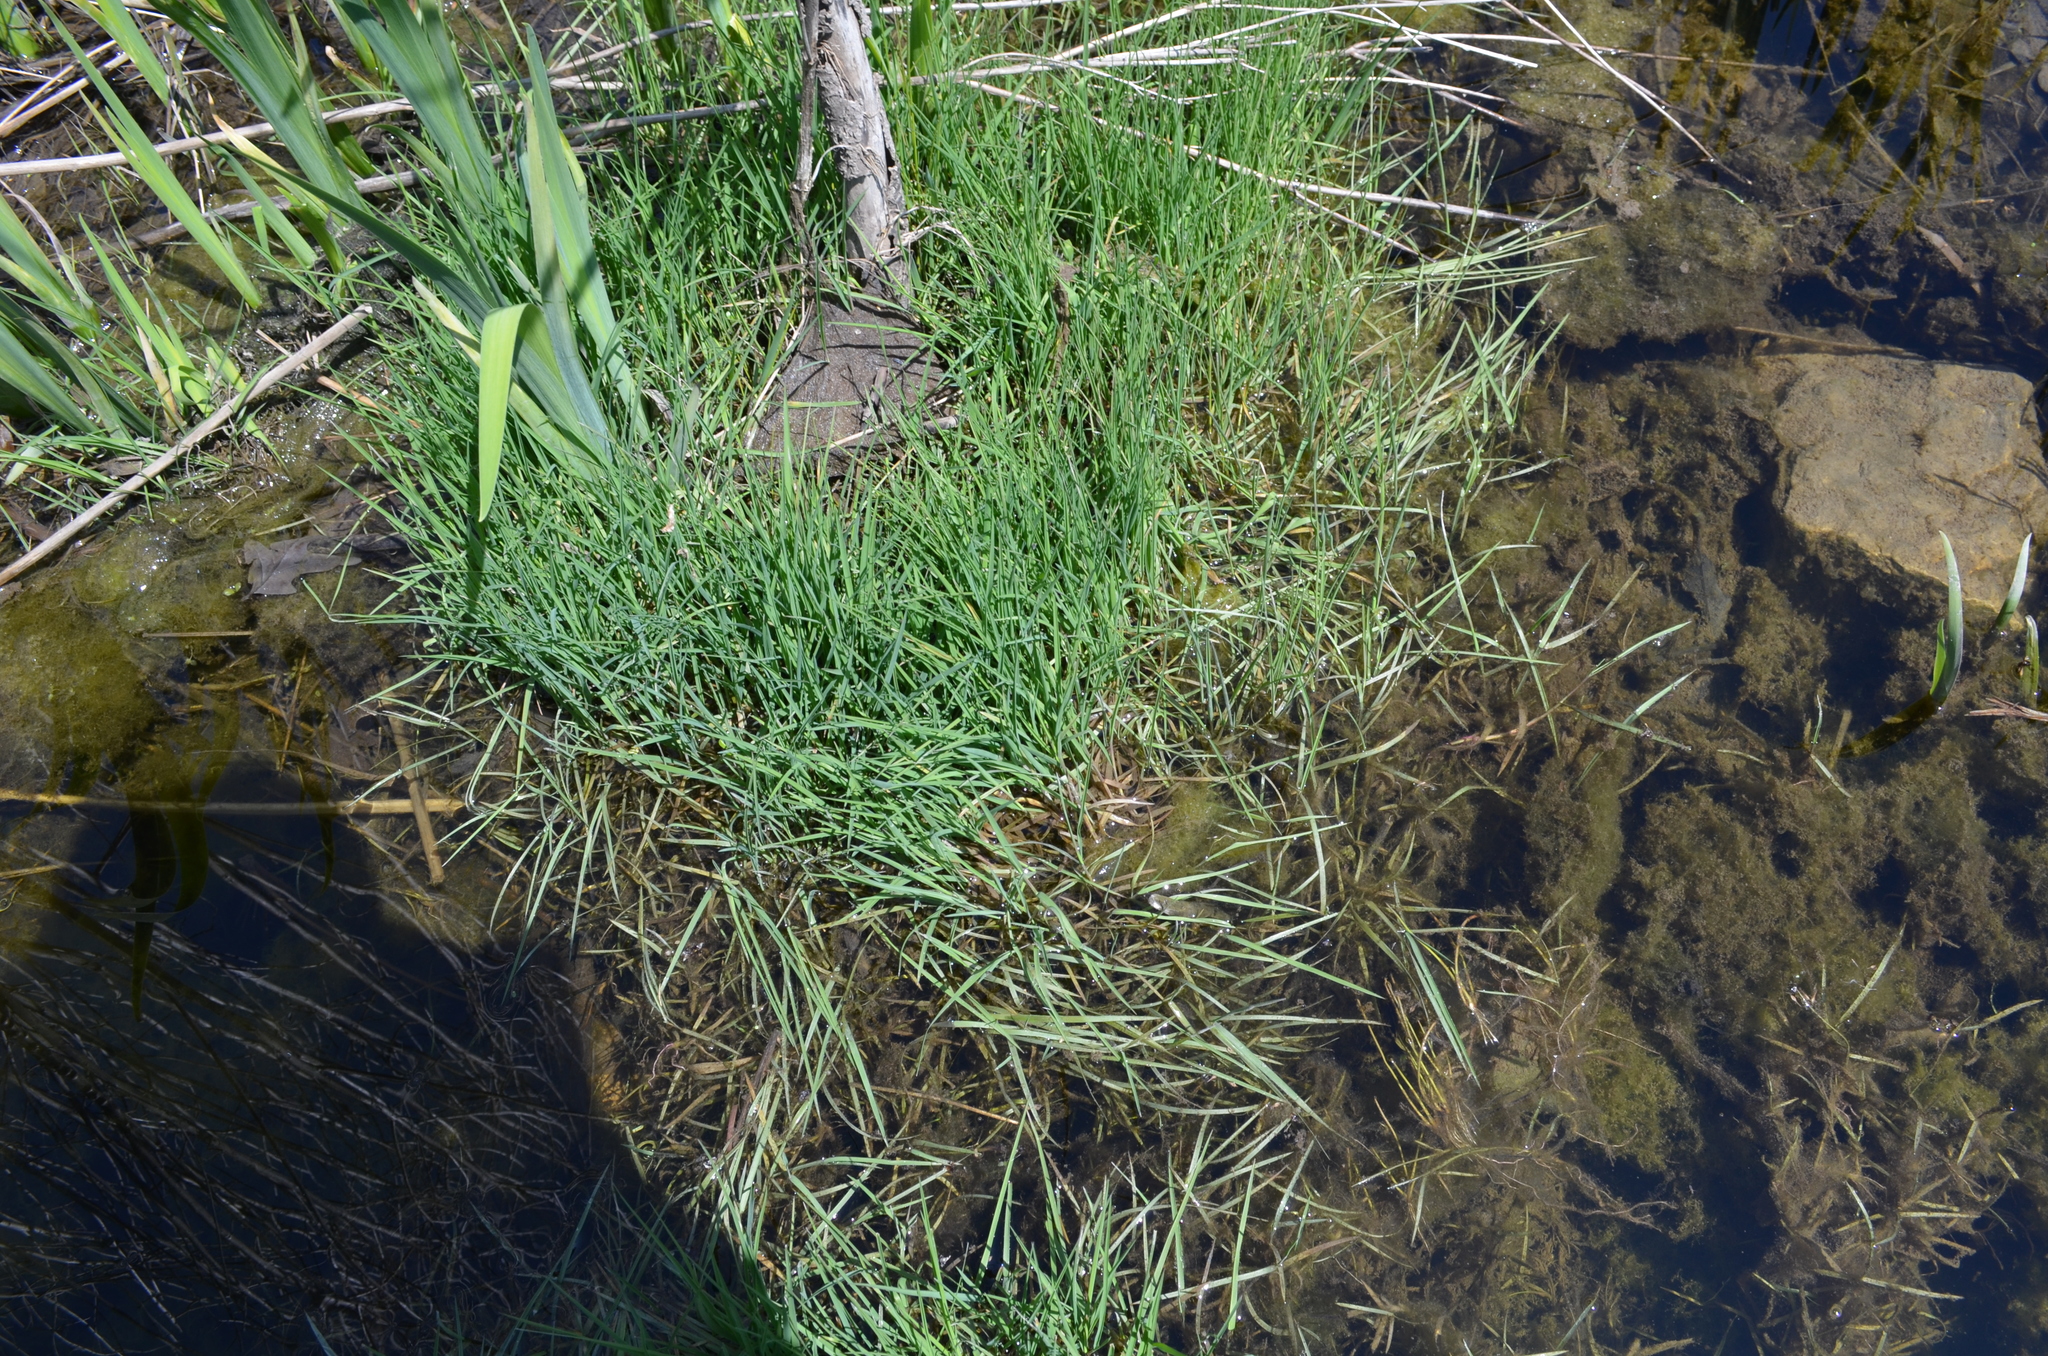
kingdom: Plantae
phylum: Tracheophyta
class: Liliopsida
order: Poales
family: Poaceae
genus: Agrostis
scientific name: Agrostis stolonifera
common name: Creeping bentgrass
